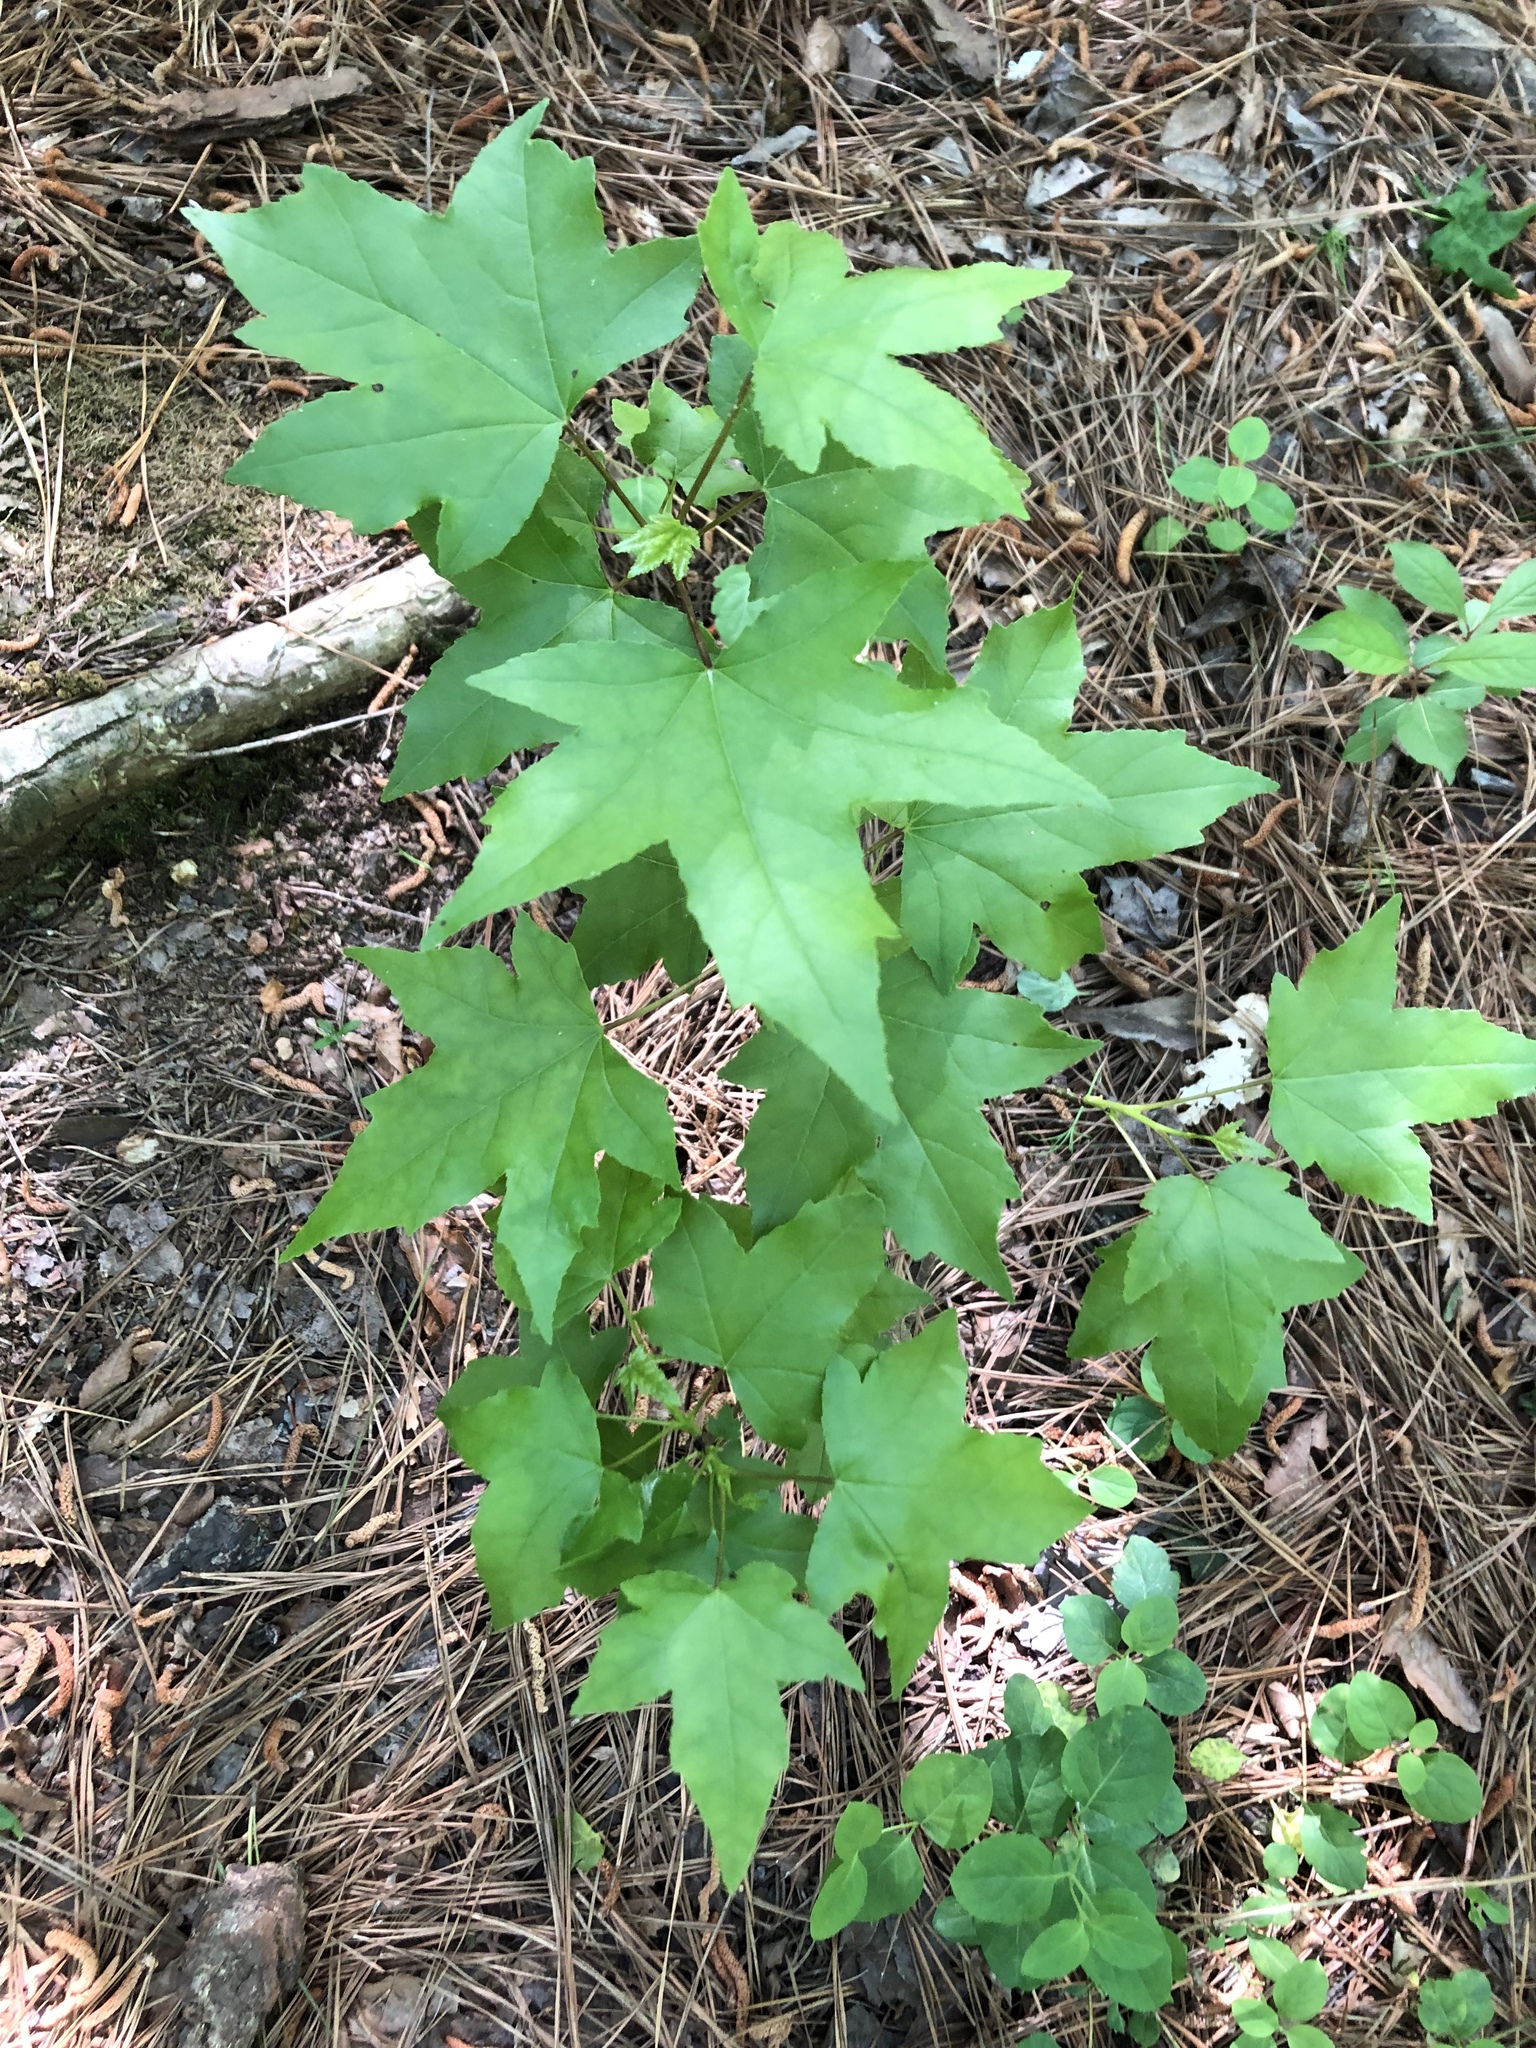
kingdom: Plantae
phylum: Tracheophyta
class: Magnoliopsida
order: Saxifragales
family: Altingiaceae
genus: Liquidambar
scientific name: Liquidambar styraciflua
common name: Sweet gum
